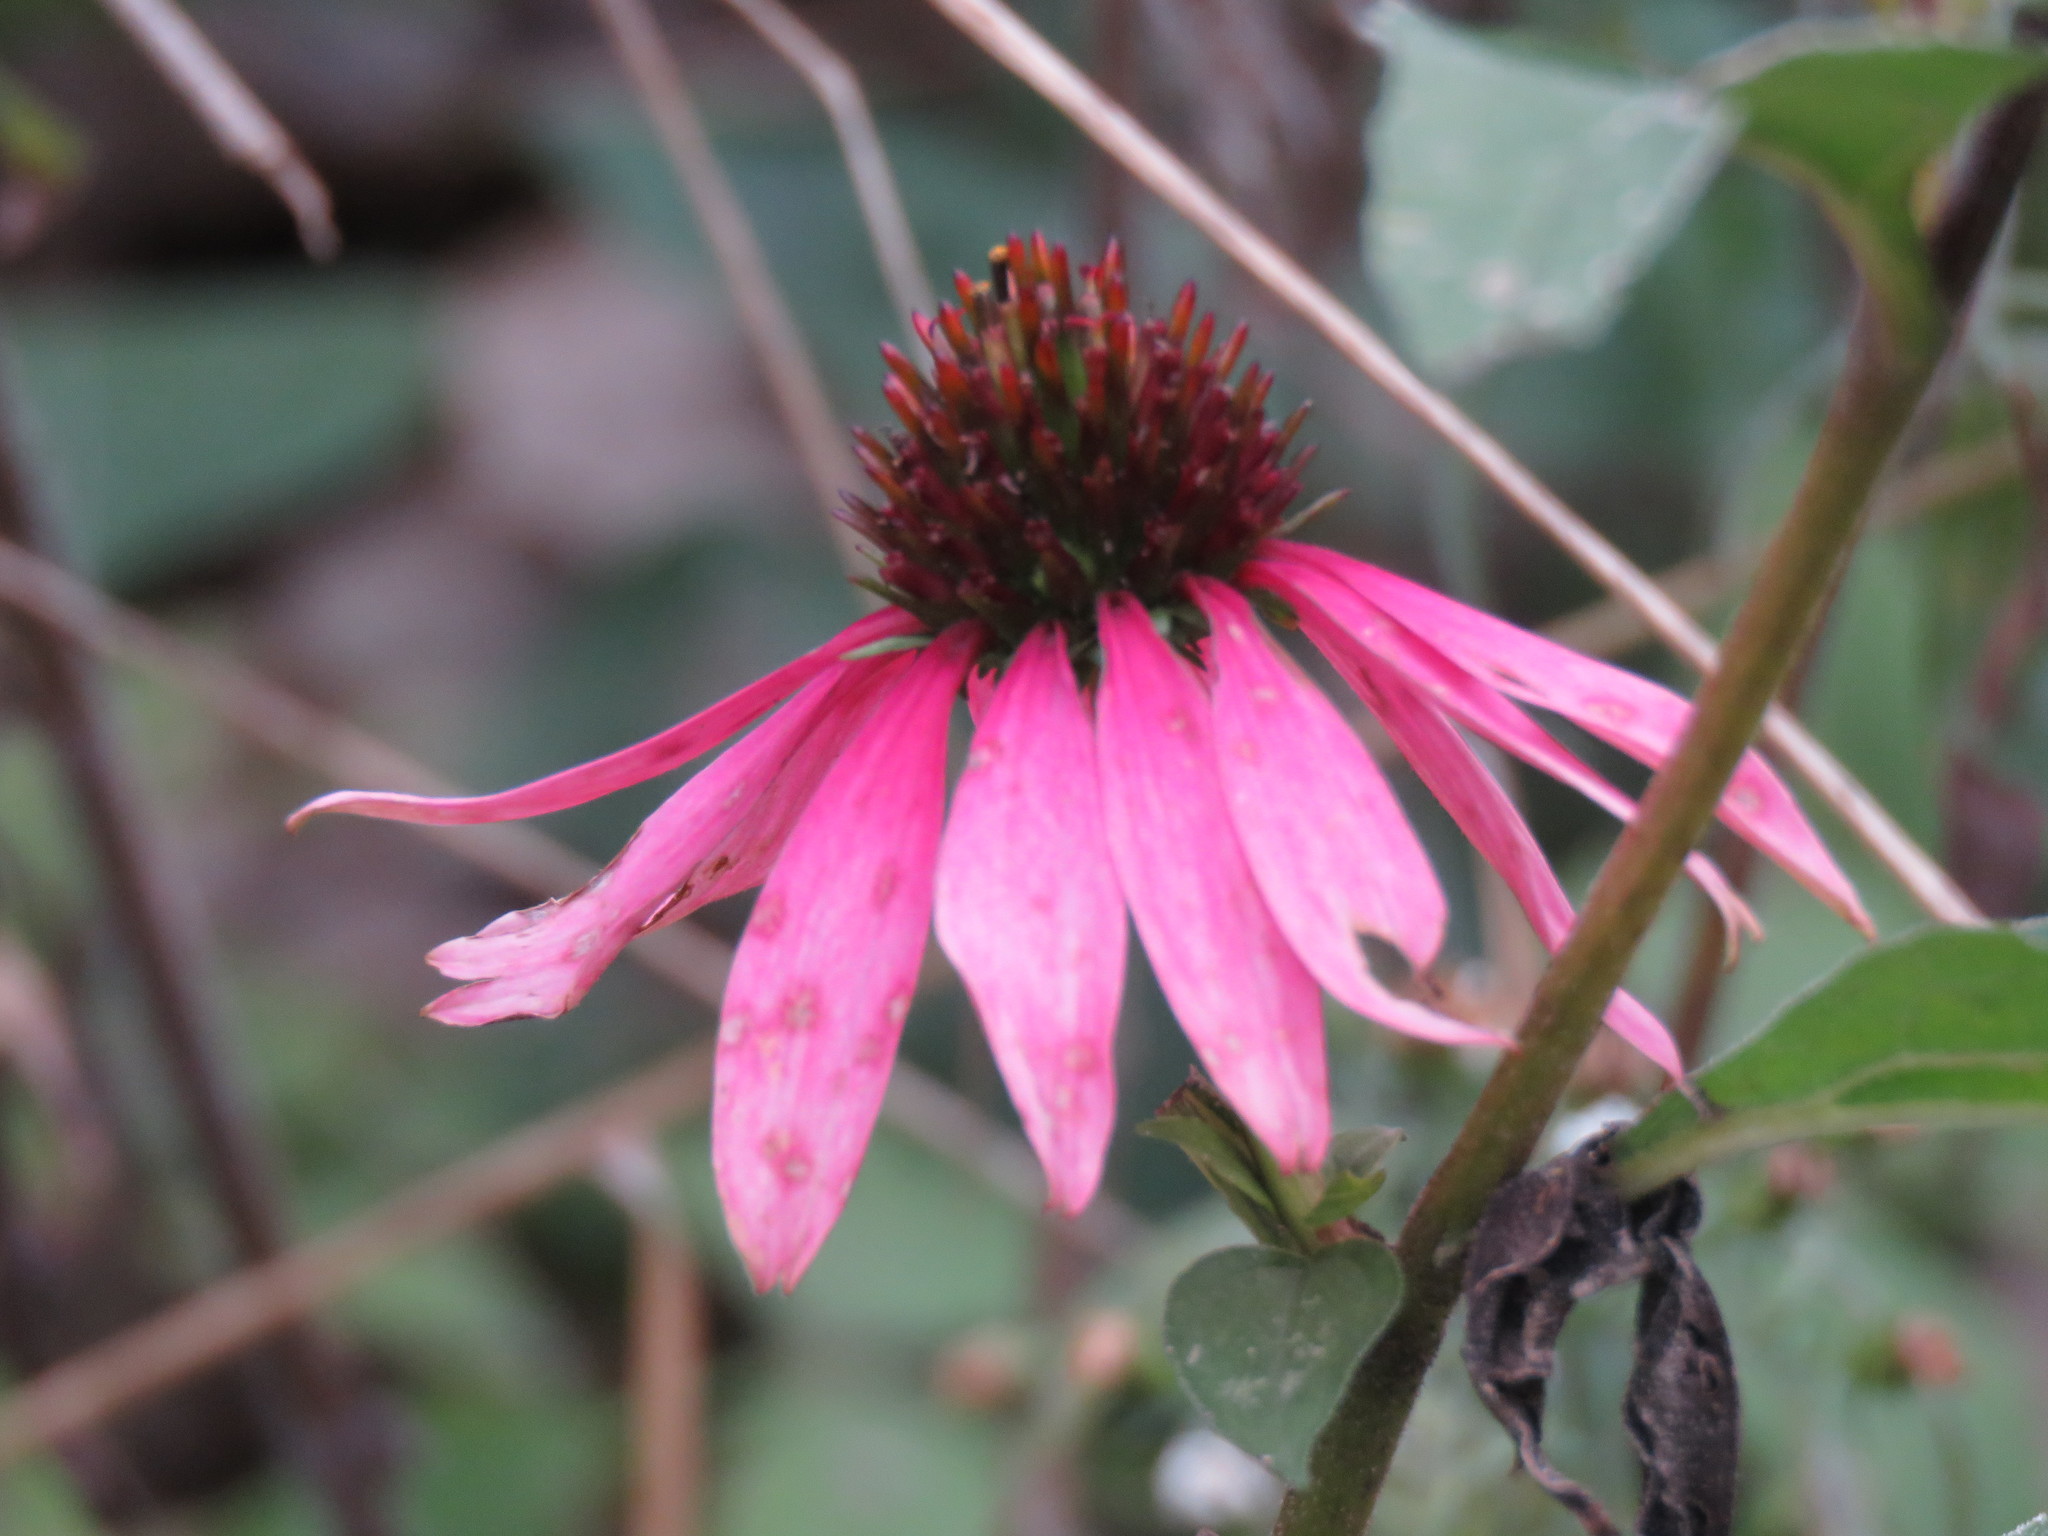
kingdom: Plantae
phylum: Tracheophyta
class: Magnoliopsida
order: Asterales
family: Asteraceae
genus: Echinacea
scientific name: Echinacea purpurea
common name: Broad-leaved purple coneflower
